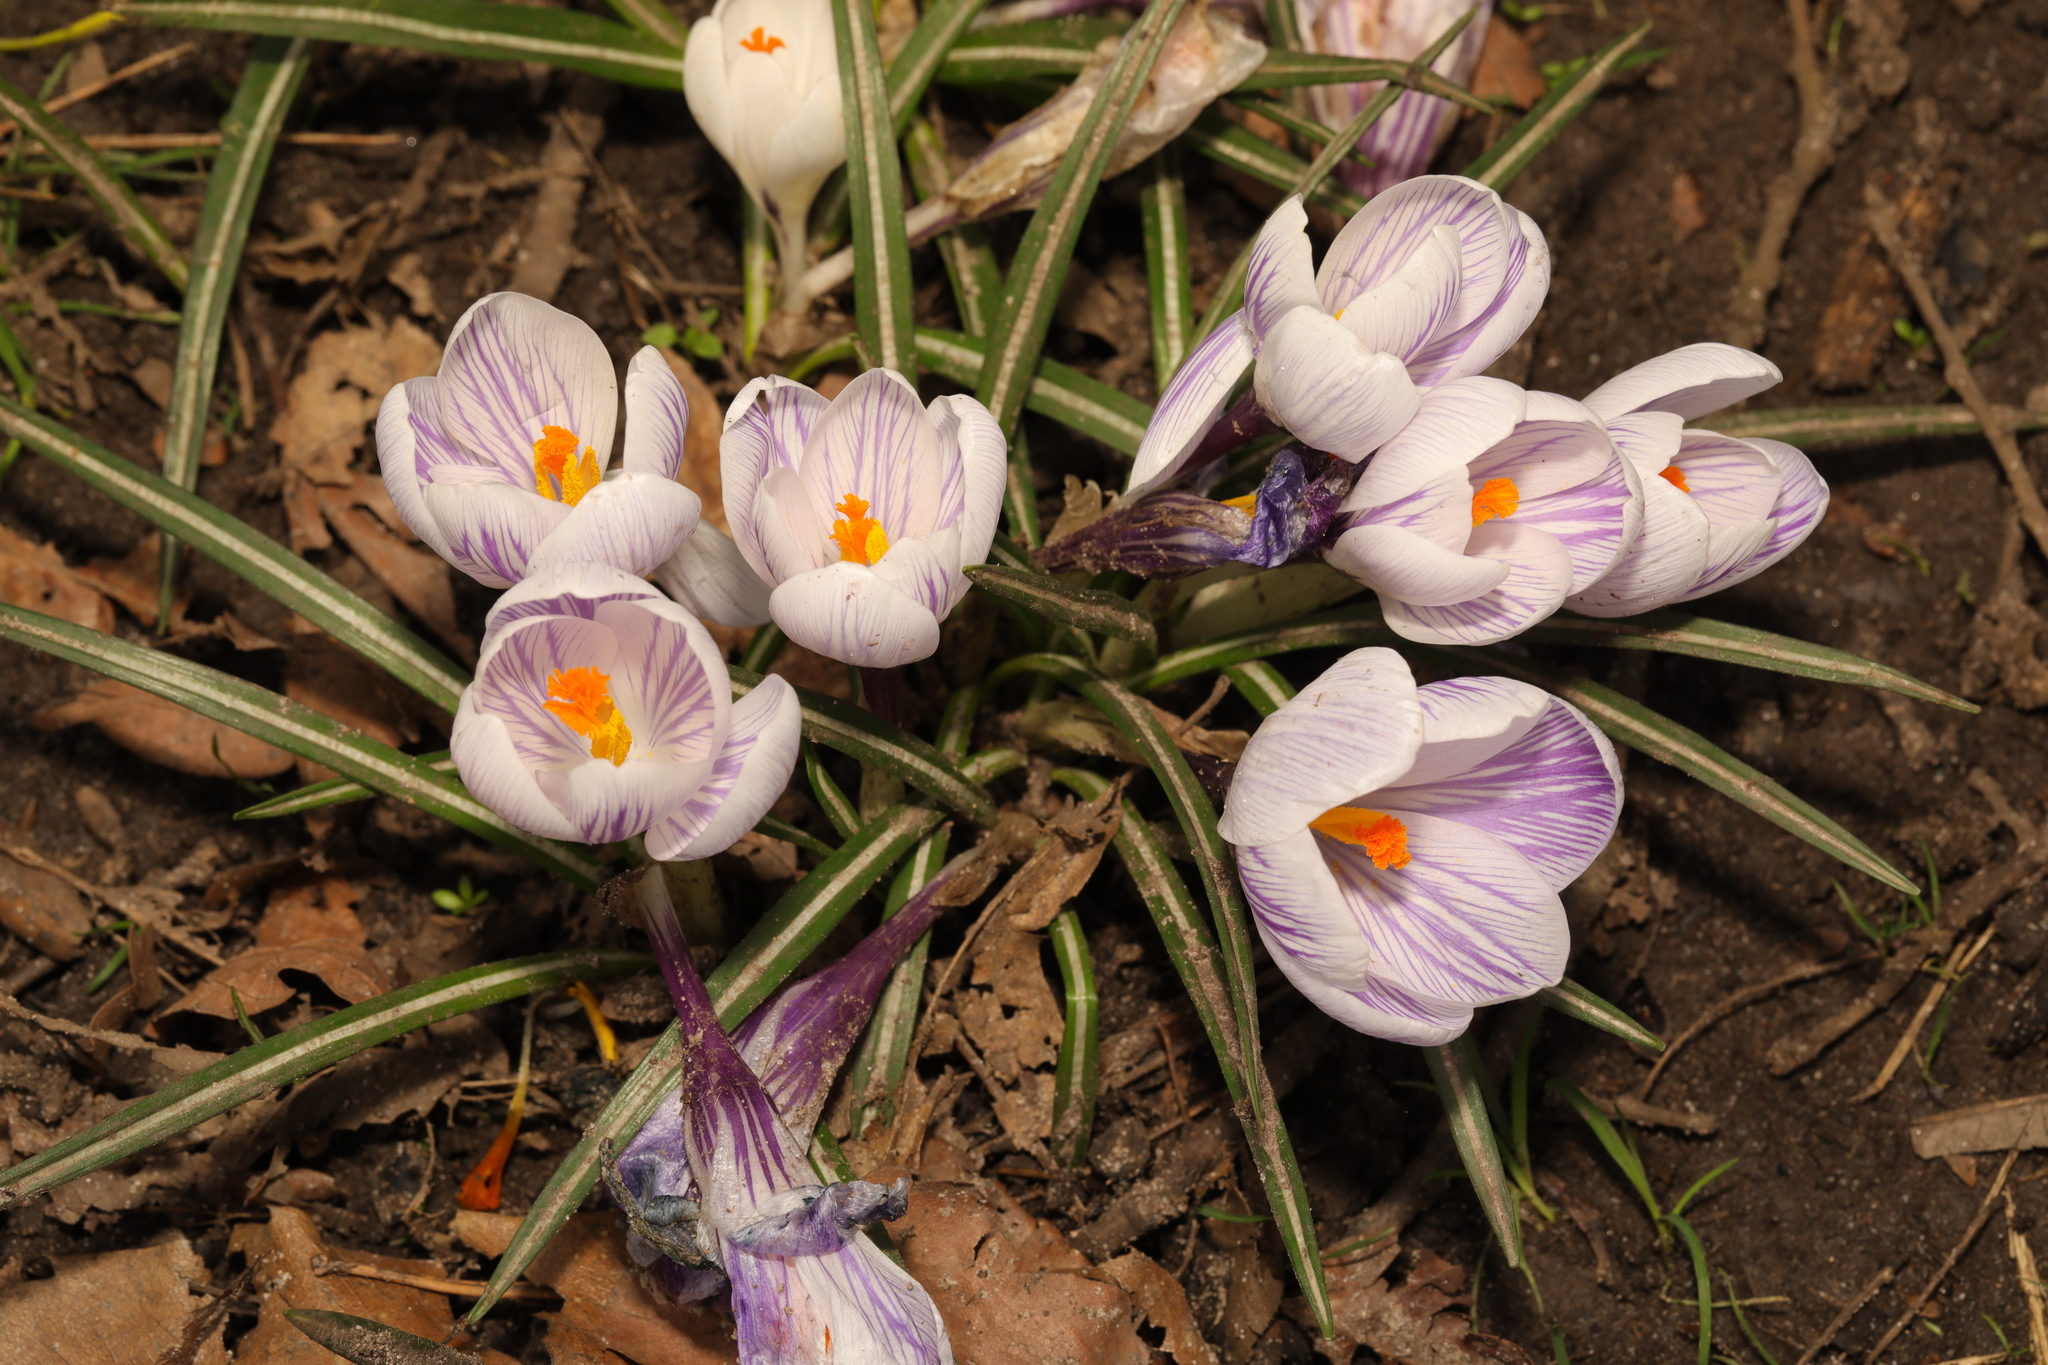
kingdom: Plantae
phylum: Tracheophyta
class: Liliopsida
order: Asparagales
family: Iridaceae
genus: Crocus
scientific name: Crocus neapolitanus
